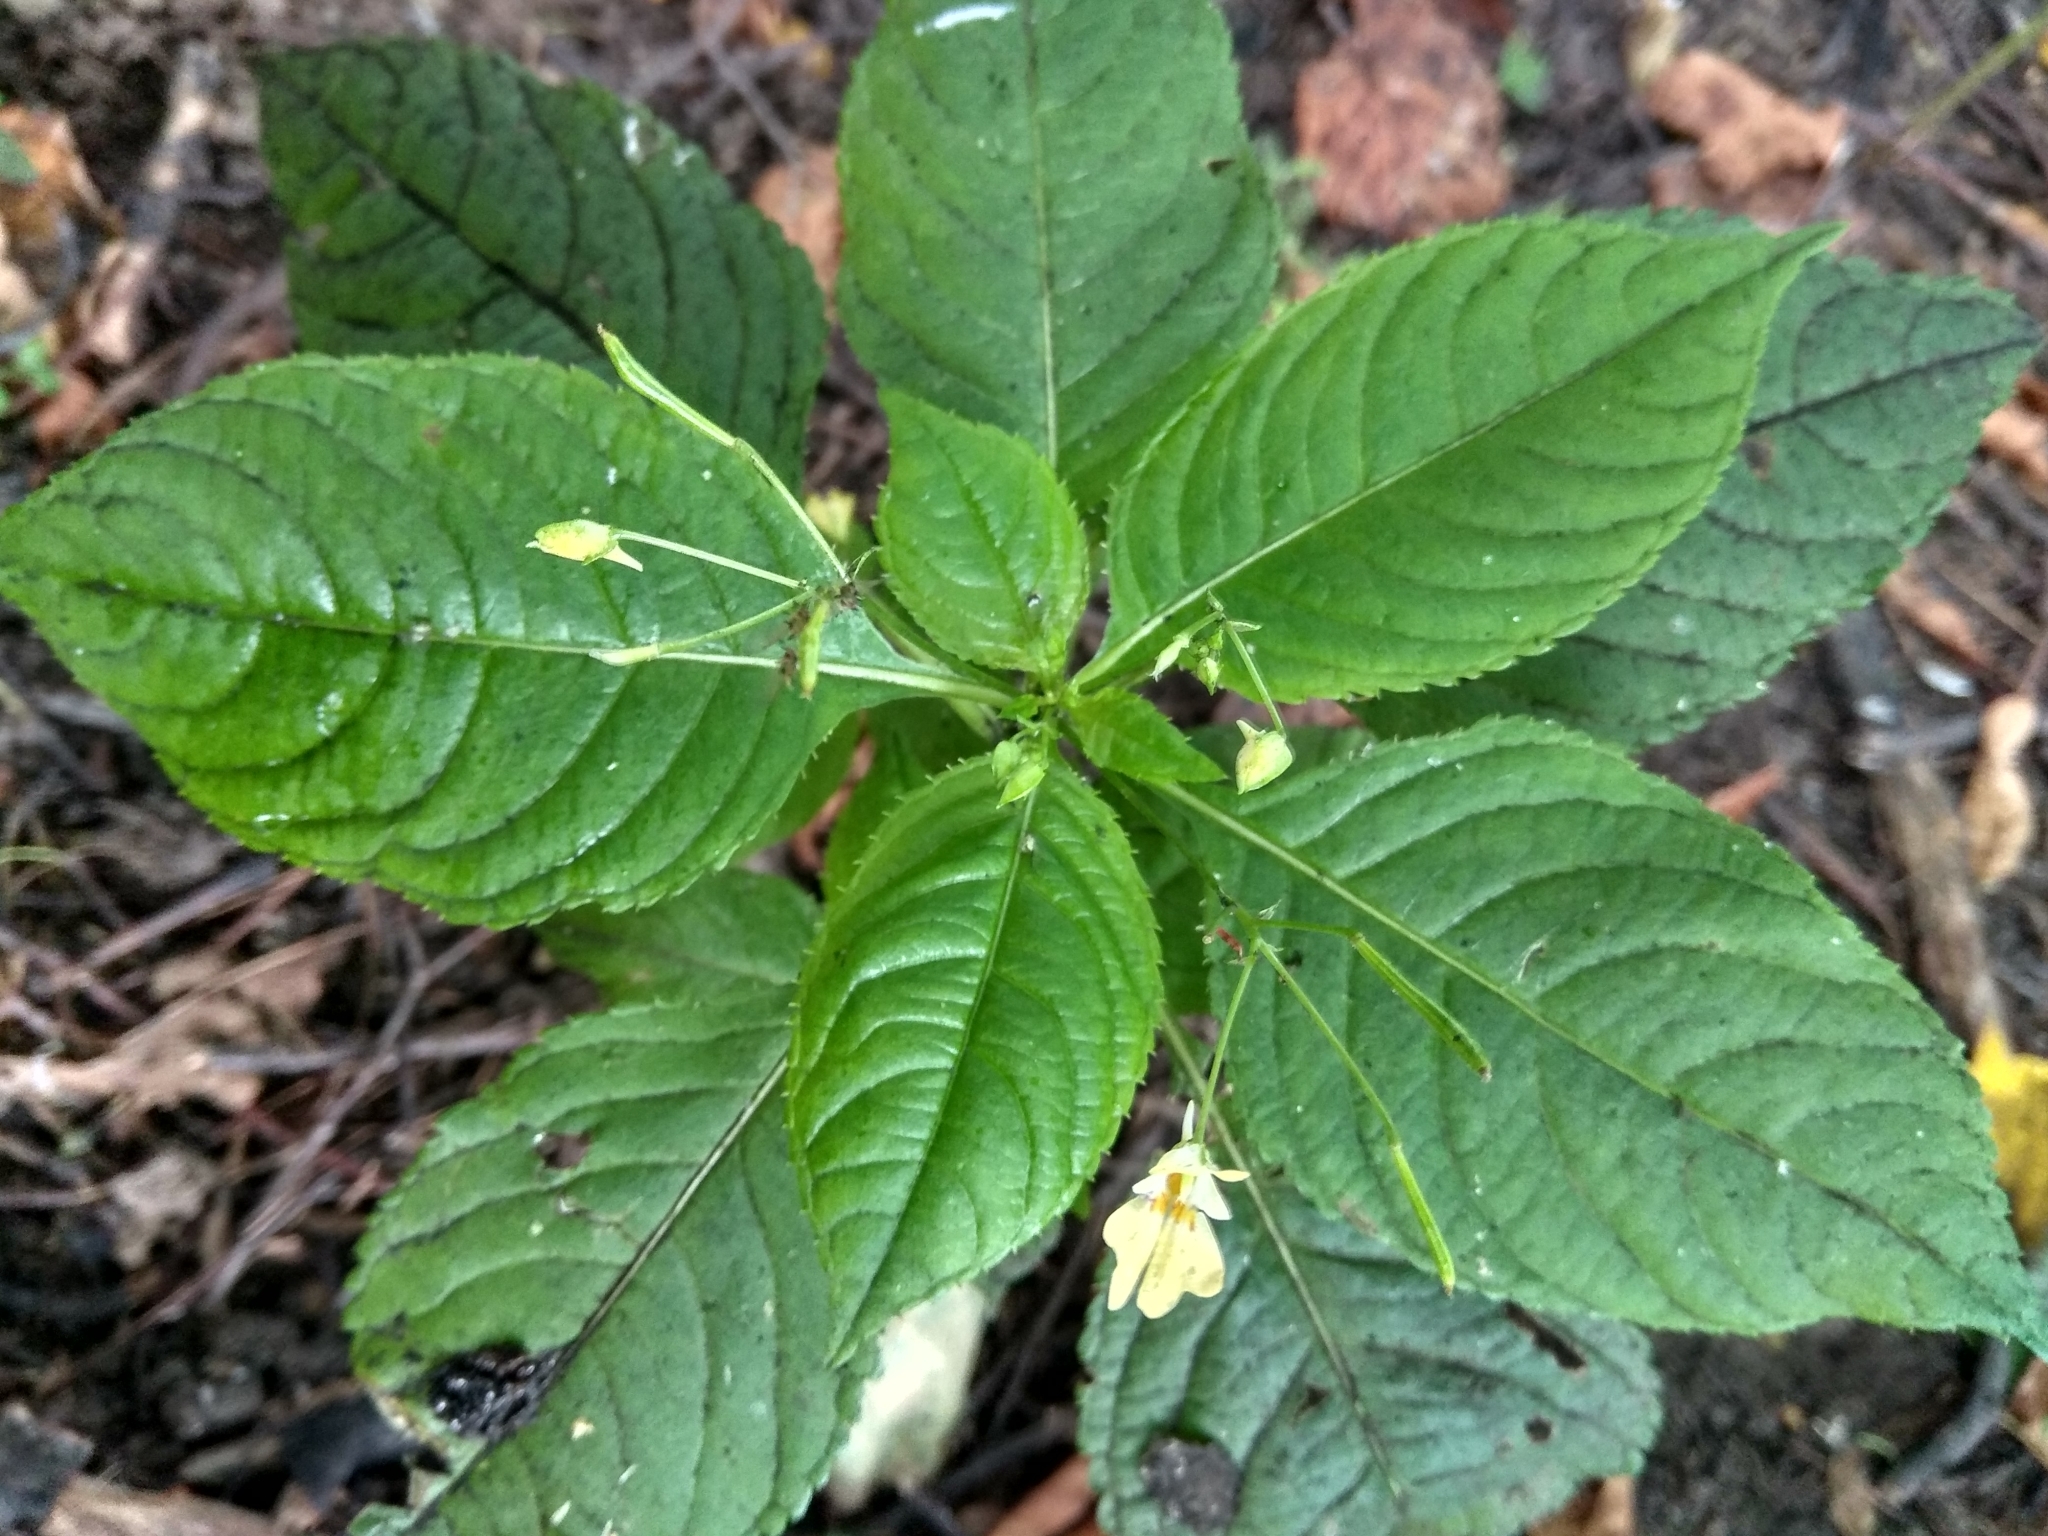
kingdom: Plantae
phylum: Tracheophyta
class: Magnoliopsida
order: Ericales
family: Balsaminaceae
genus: Impatiens
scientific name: Impatiens parviflora
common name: Small balsam
